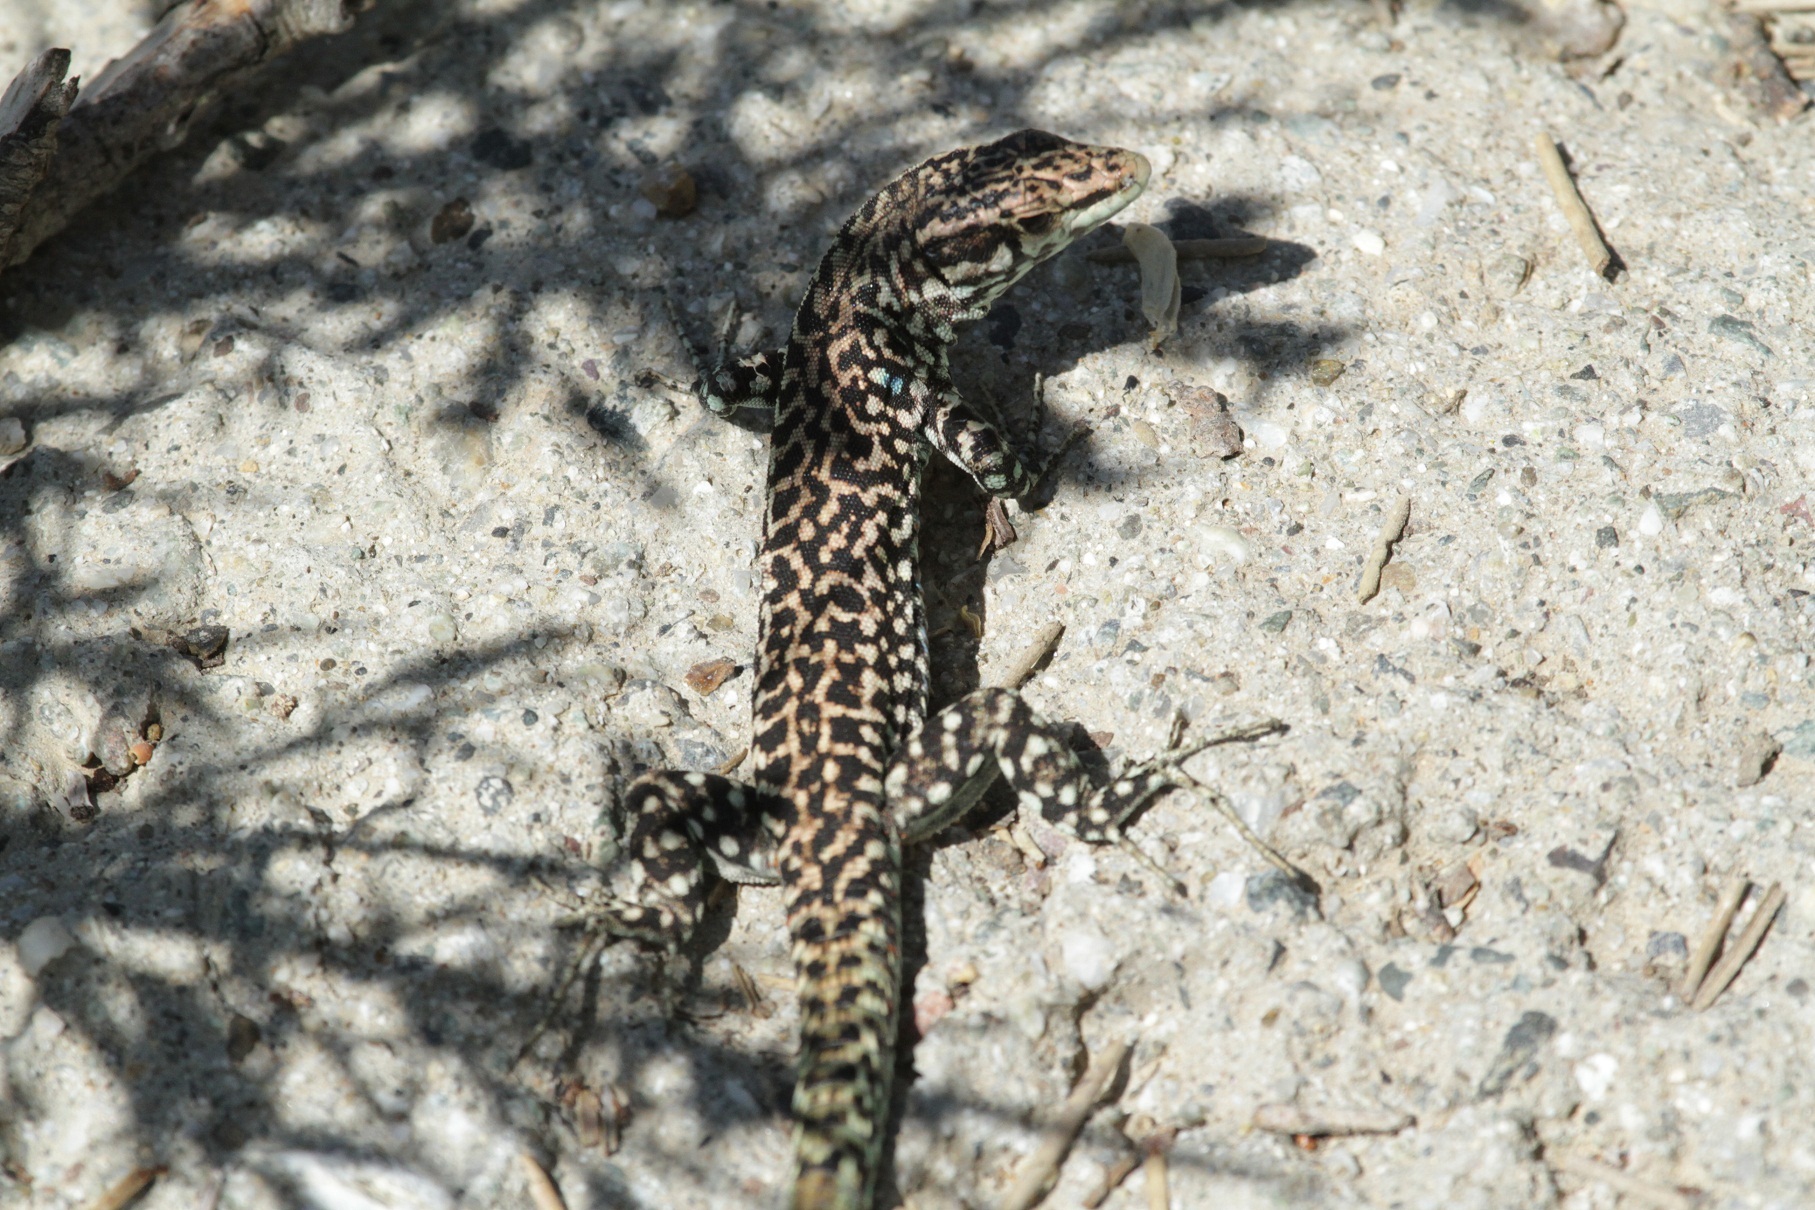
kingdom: Animalia
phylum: Chordata
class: Squamata
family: Lacertidae
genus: Podarcis
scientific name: Podarcis tiliguerta
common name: Tyrrhenian wall lizard
